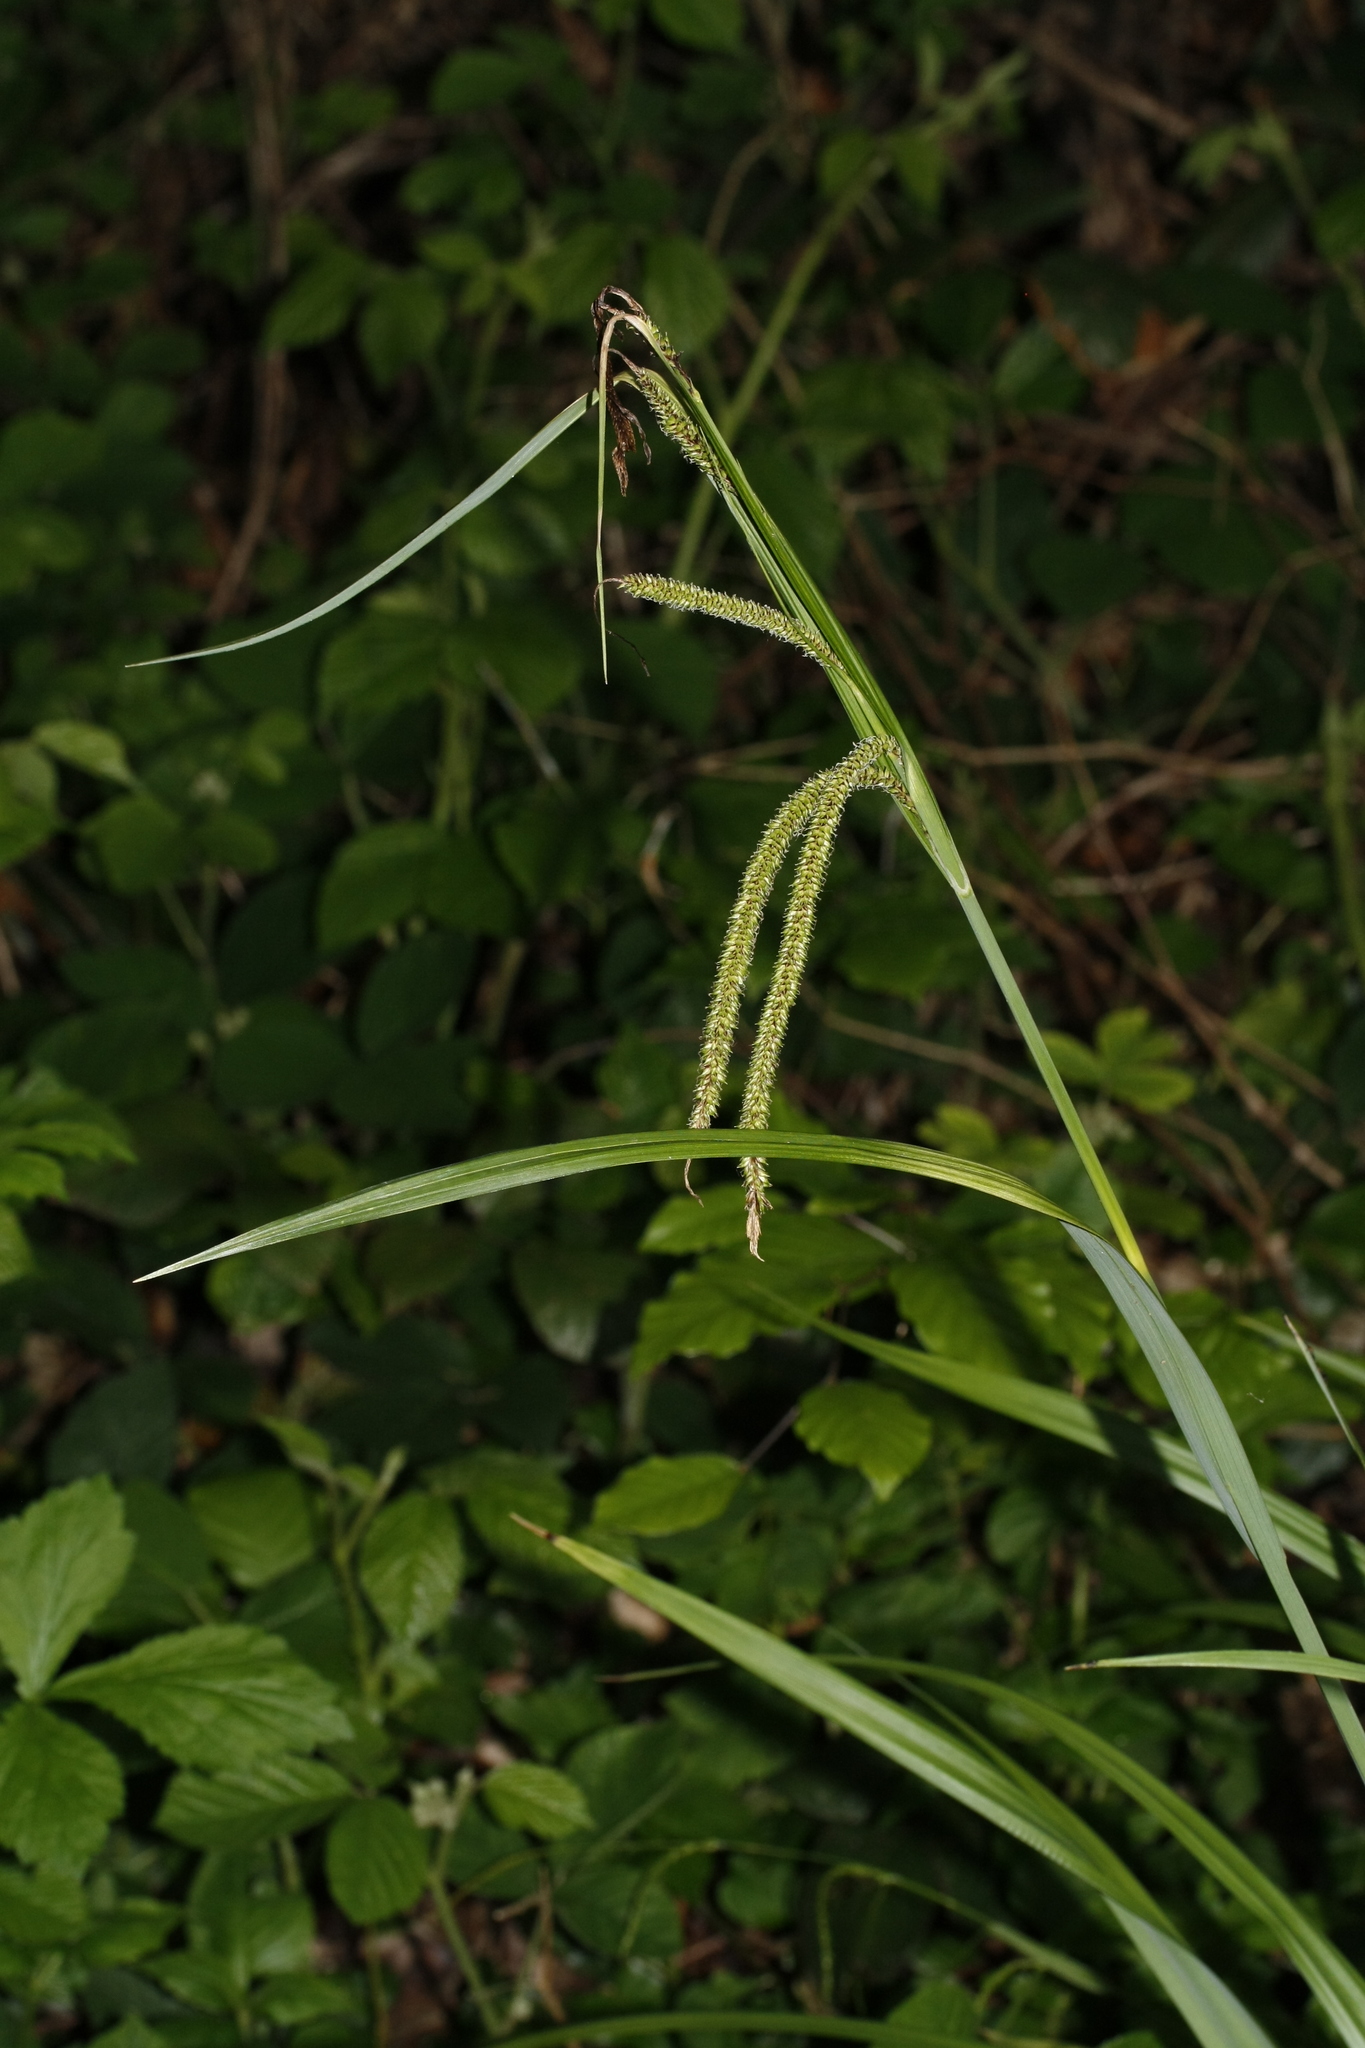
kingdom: Plantae
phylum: Tracheophyta
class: Liliopsida
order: Poales
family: Cyperaceae
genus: Carex
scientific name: Carex pendula
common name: Pendulous sedge
